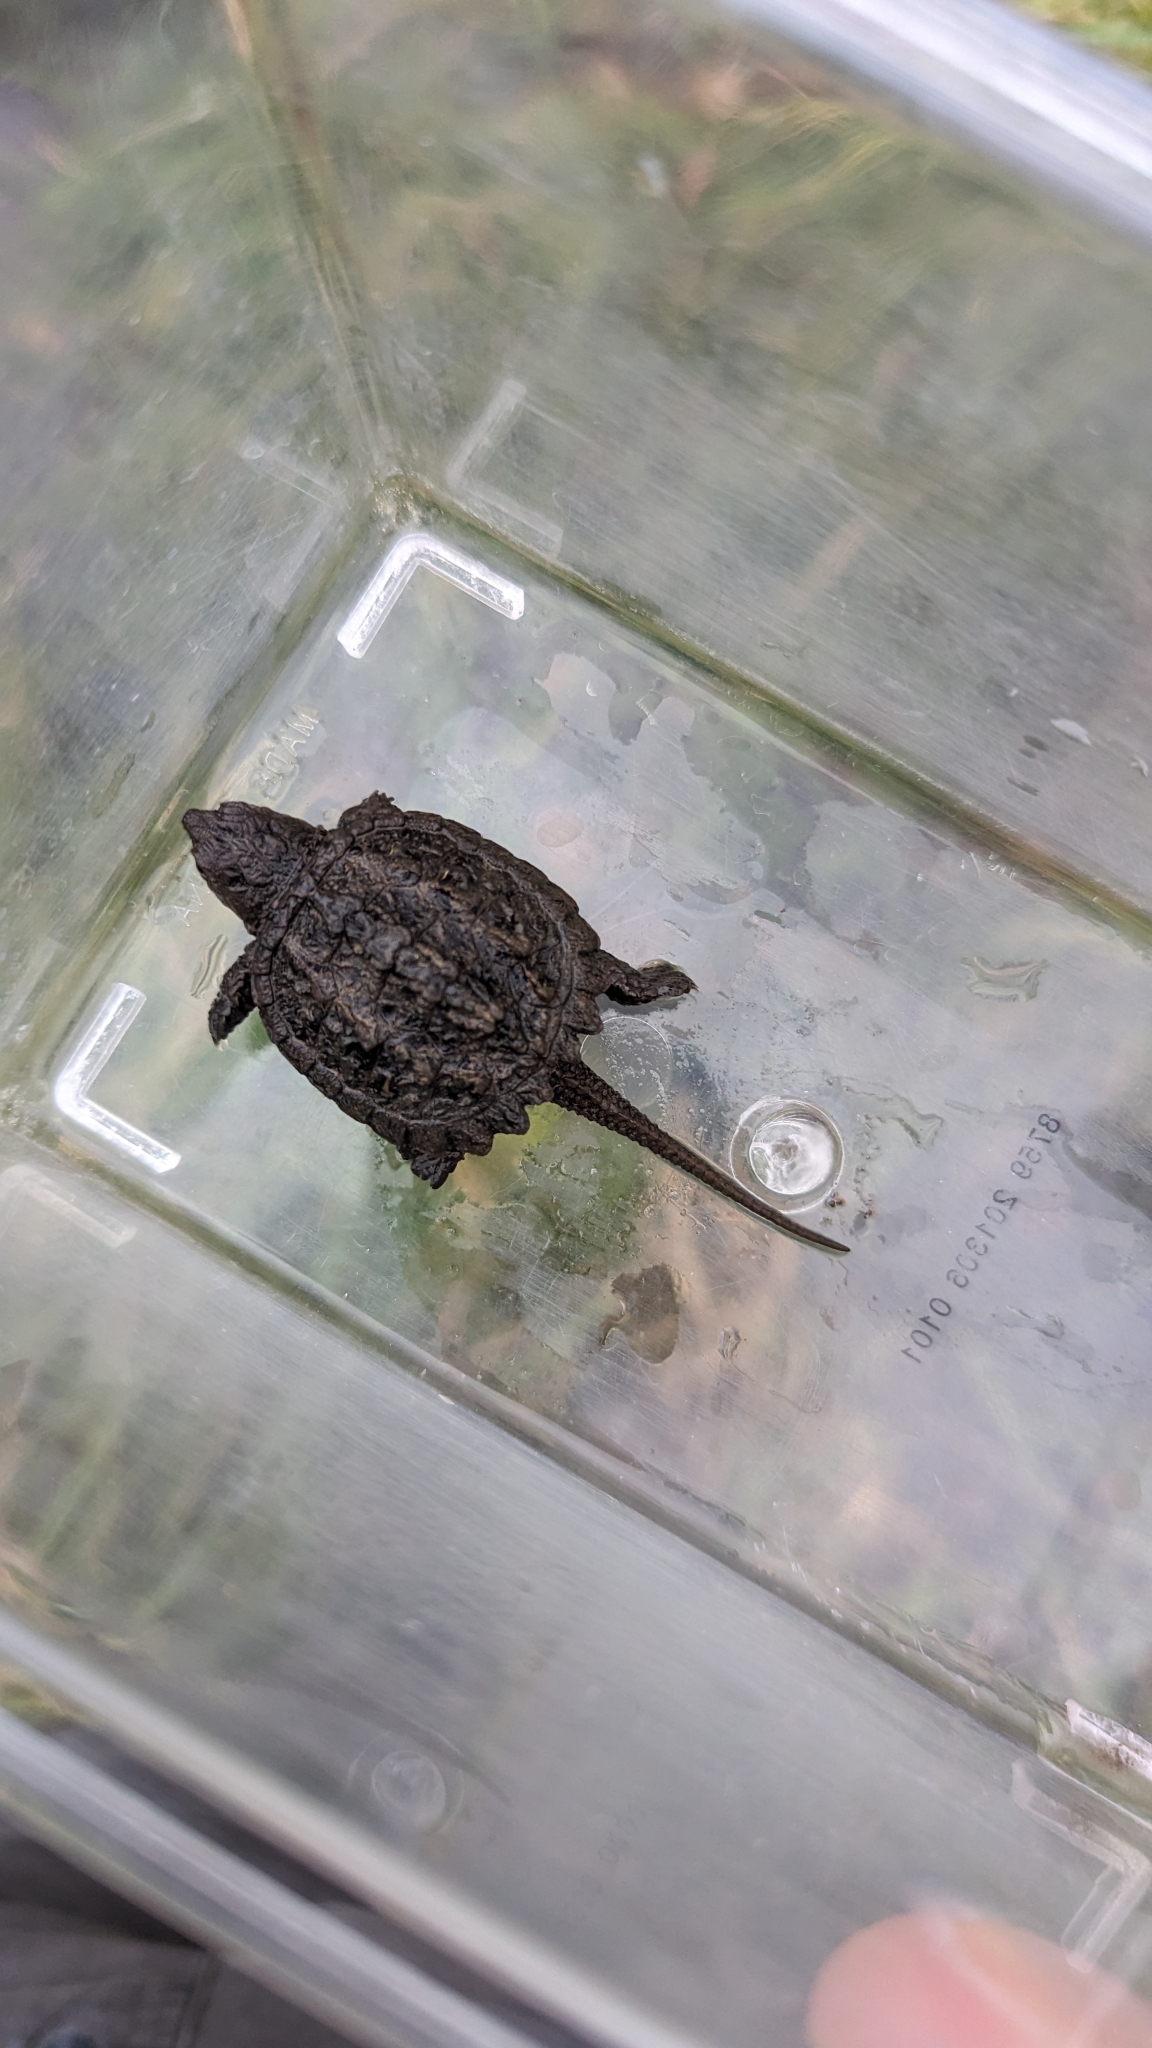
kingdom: Animalia
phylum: Chordata
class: Testudines
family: Chelydridae
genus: Chelydra
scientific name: Chelydra serpentina
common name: Common snapping turtle
